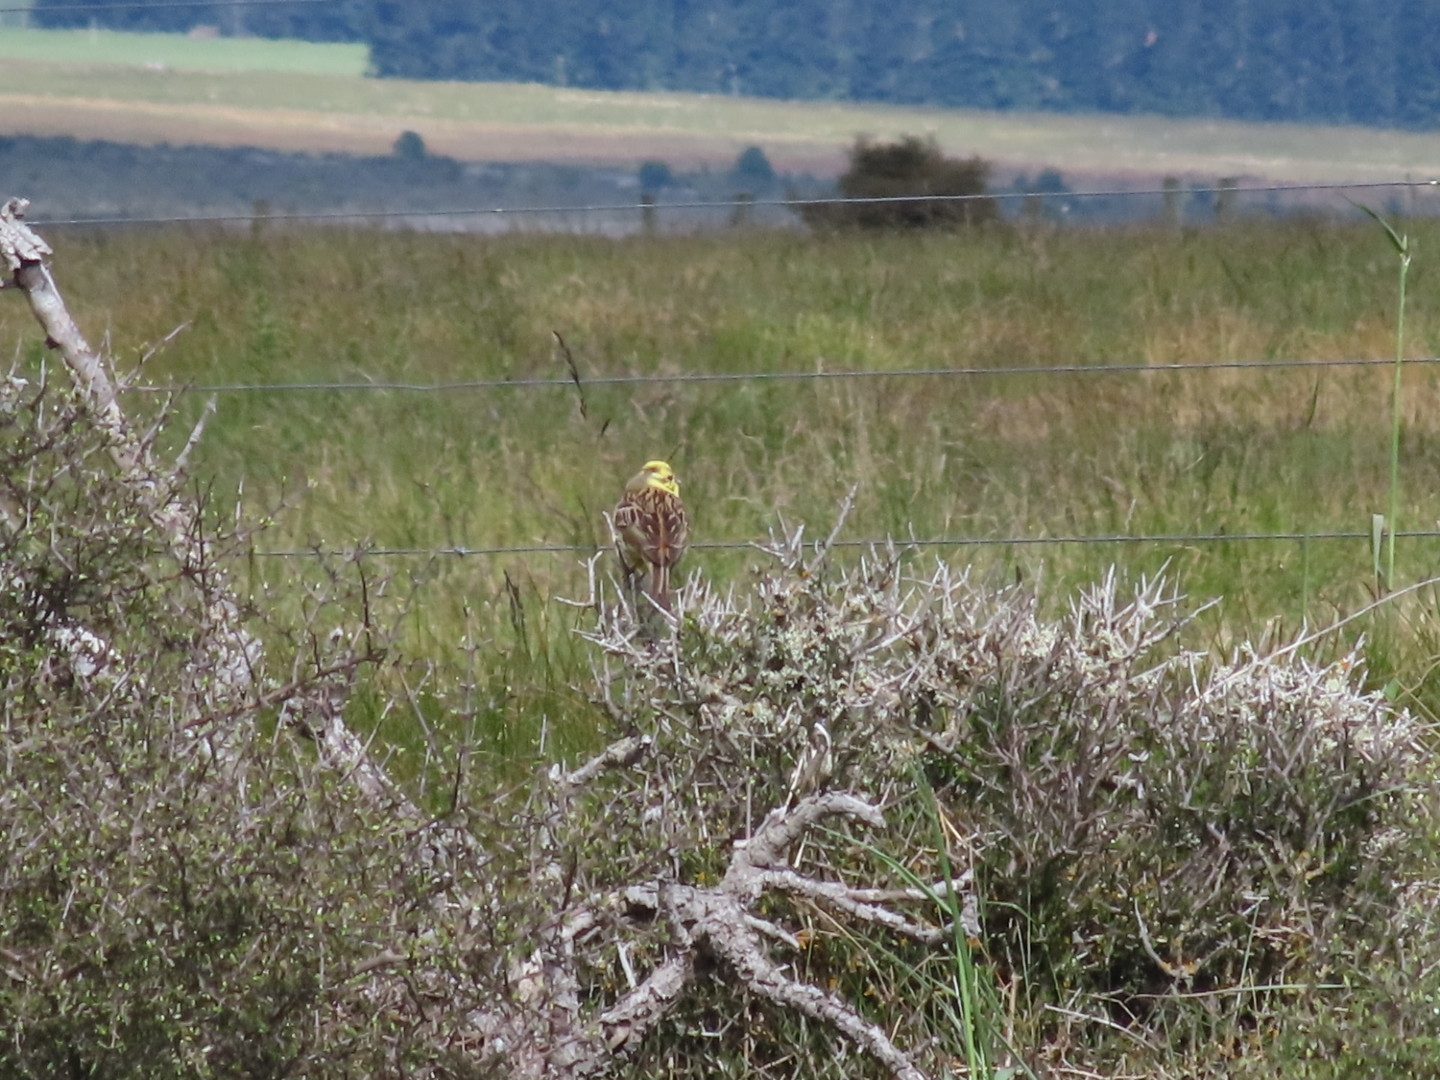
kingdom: Animalia
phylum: Chordata
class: Aves
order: Passeriformes
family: Emberizidae
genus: Emberiza
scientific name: Emberiza citrinella
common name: Yellowhammer
